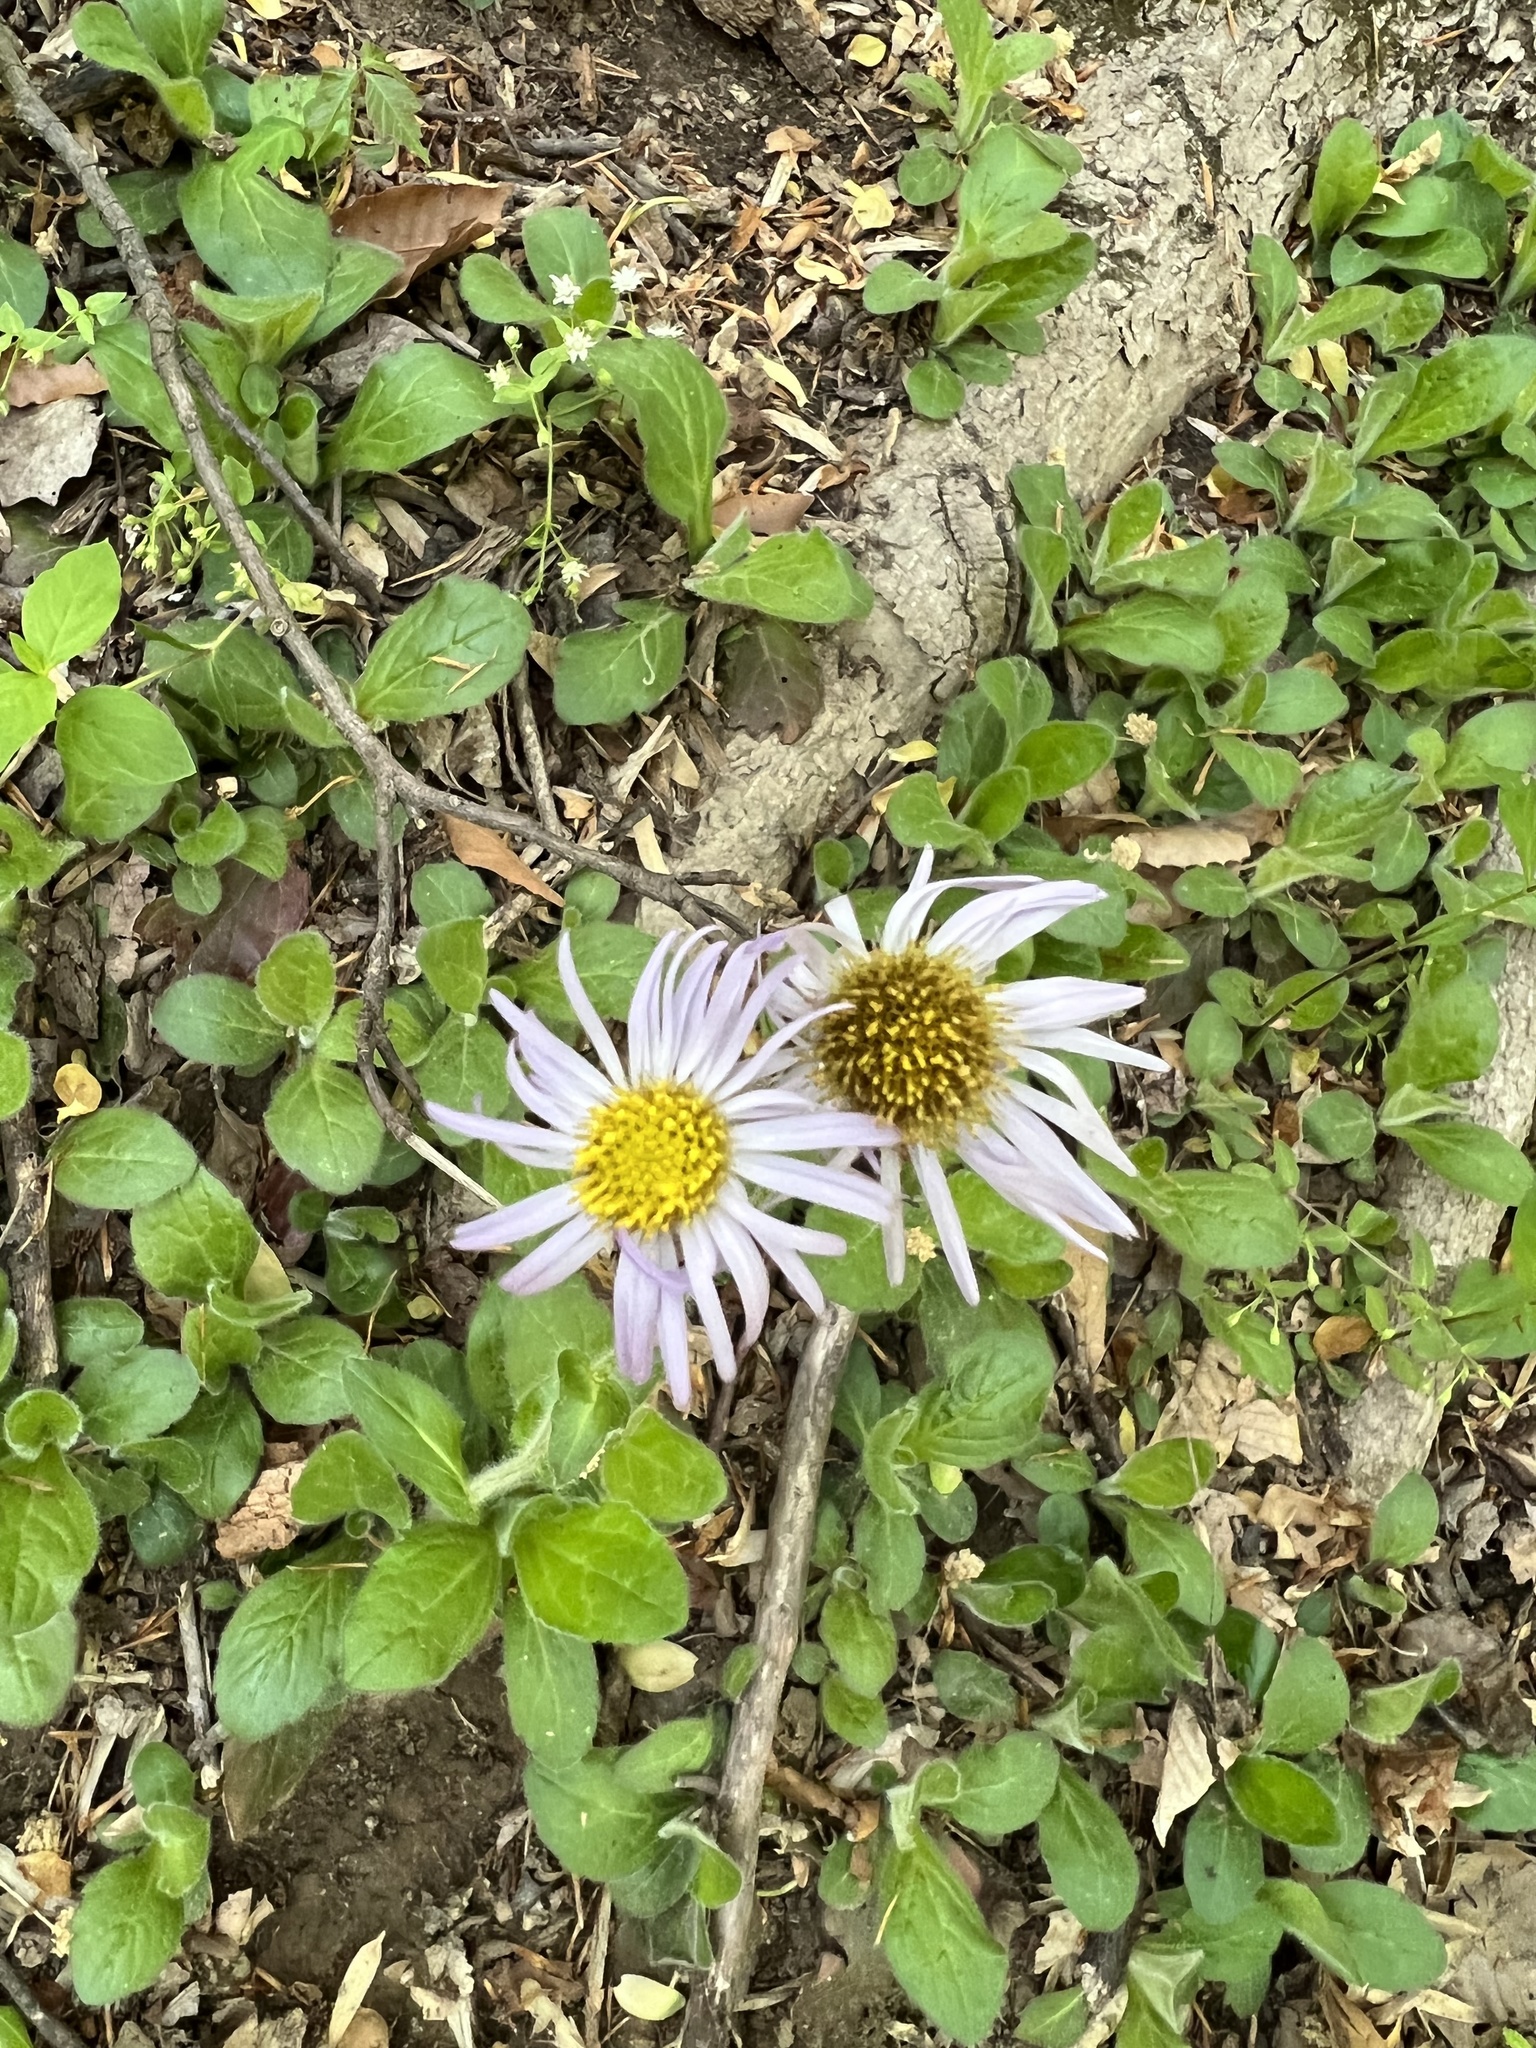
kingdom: Plantae
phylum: Tracheophyta
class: Magnoliopsida
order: Asterales
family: Asteraceae
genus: Erigeron
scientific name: Erigeron pulchellus
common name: Hairy fleabane
